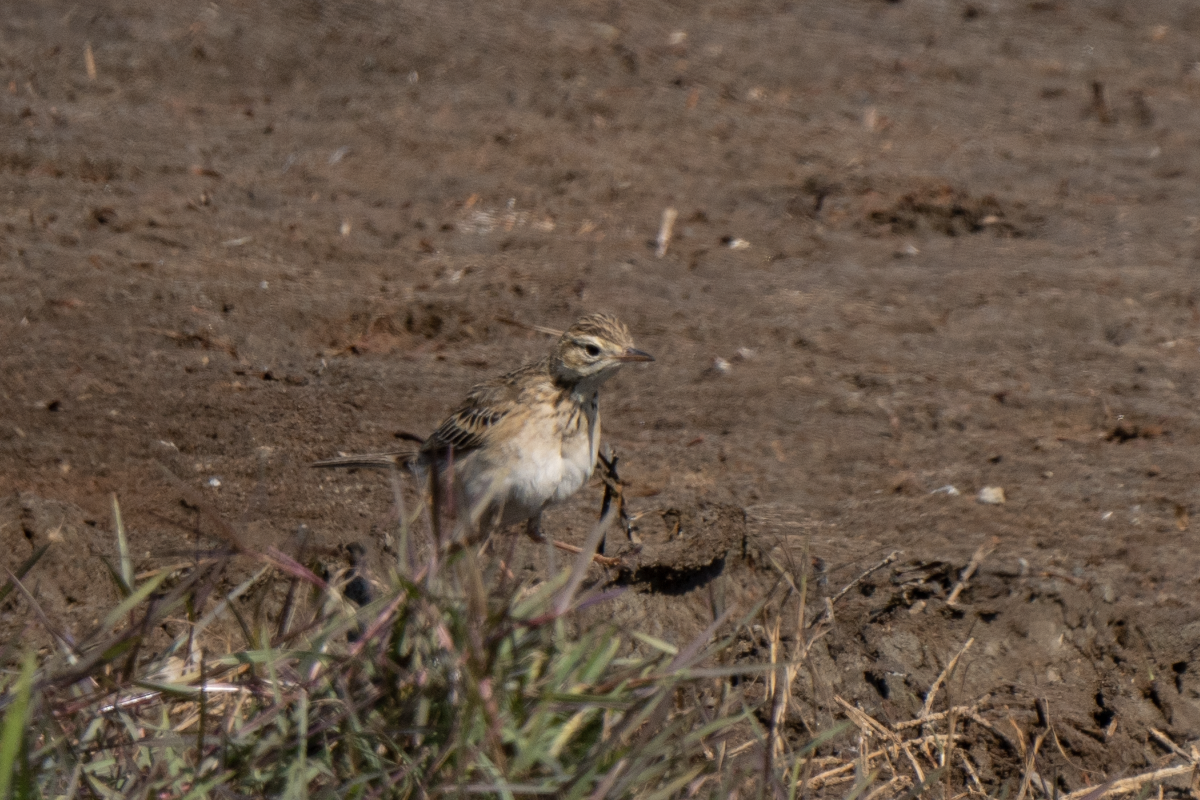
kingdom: Animalia
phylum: Chordata
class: Aves
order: Passeriformes
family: Motacillidae
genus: Anthus
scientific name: Anthus richardi
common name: Richard's pipit
